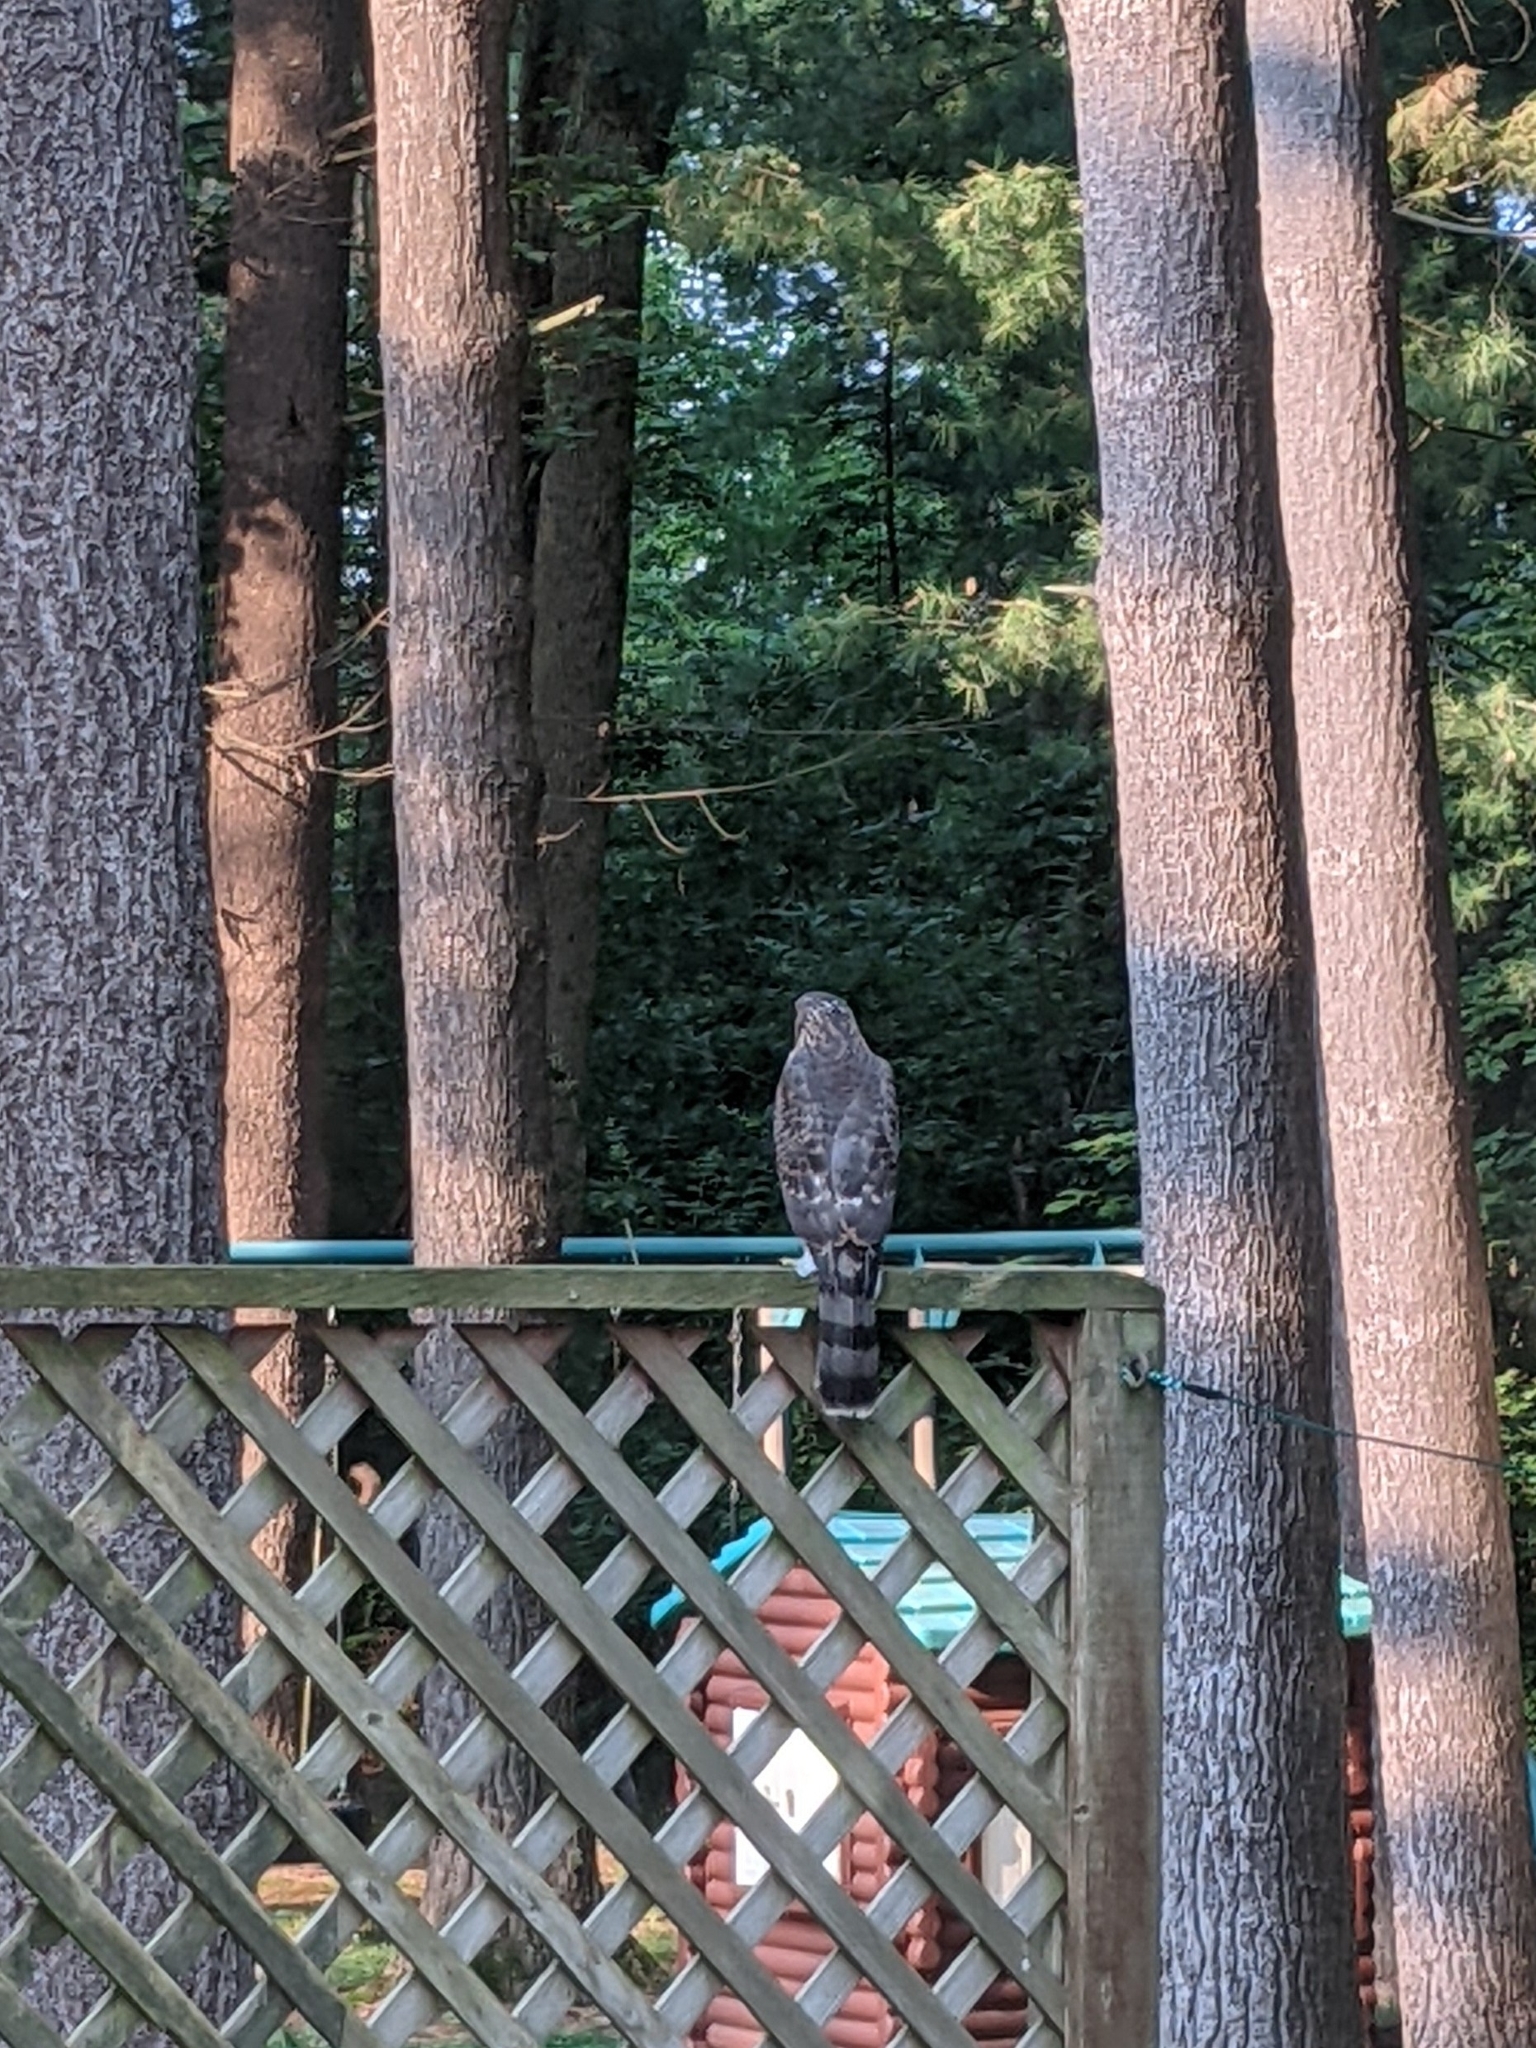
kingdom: Animalia
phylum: Chordata
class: Aves
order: Accipitriformes
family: Accipitridae
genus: Accipiter
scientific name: Accipiter cooperii
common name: Cooper's hawk
